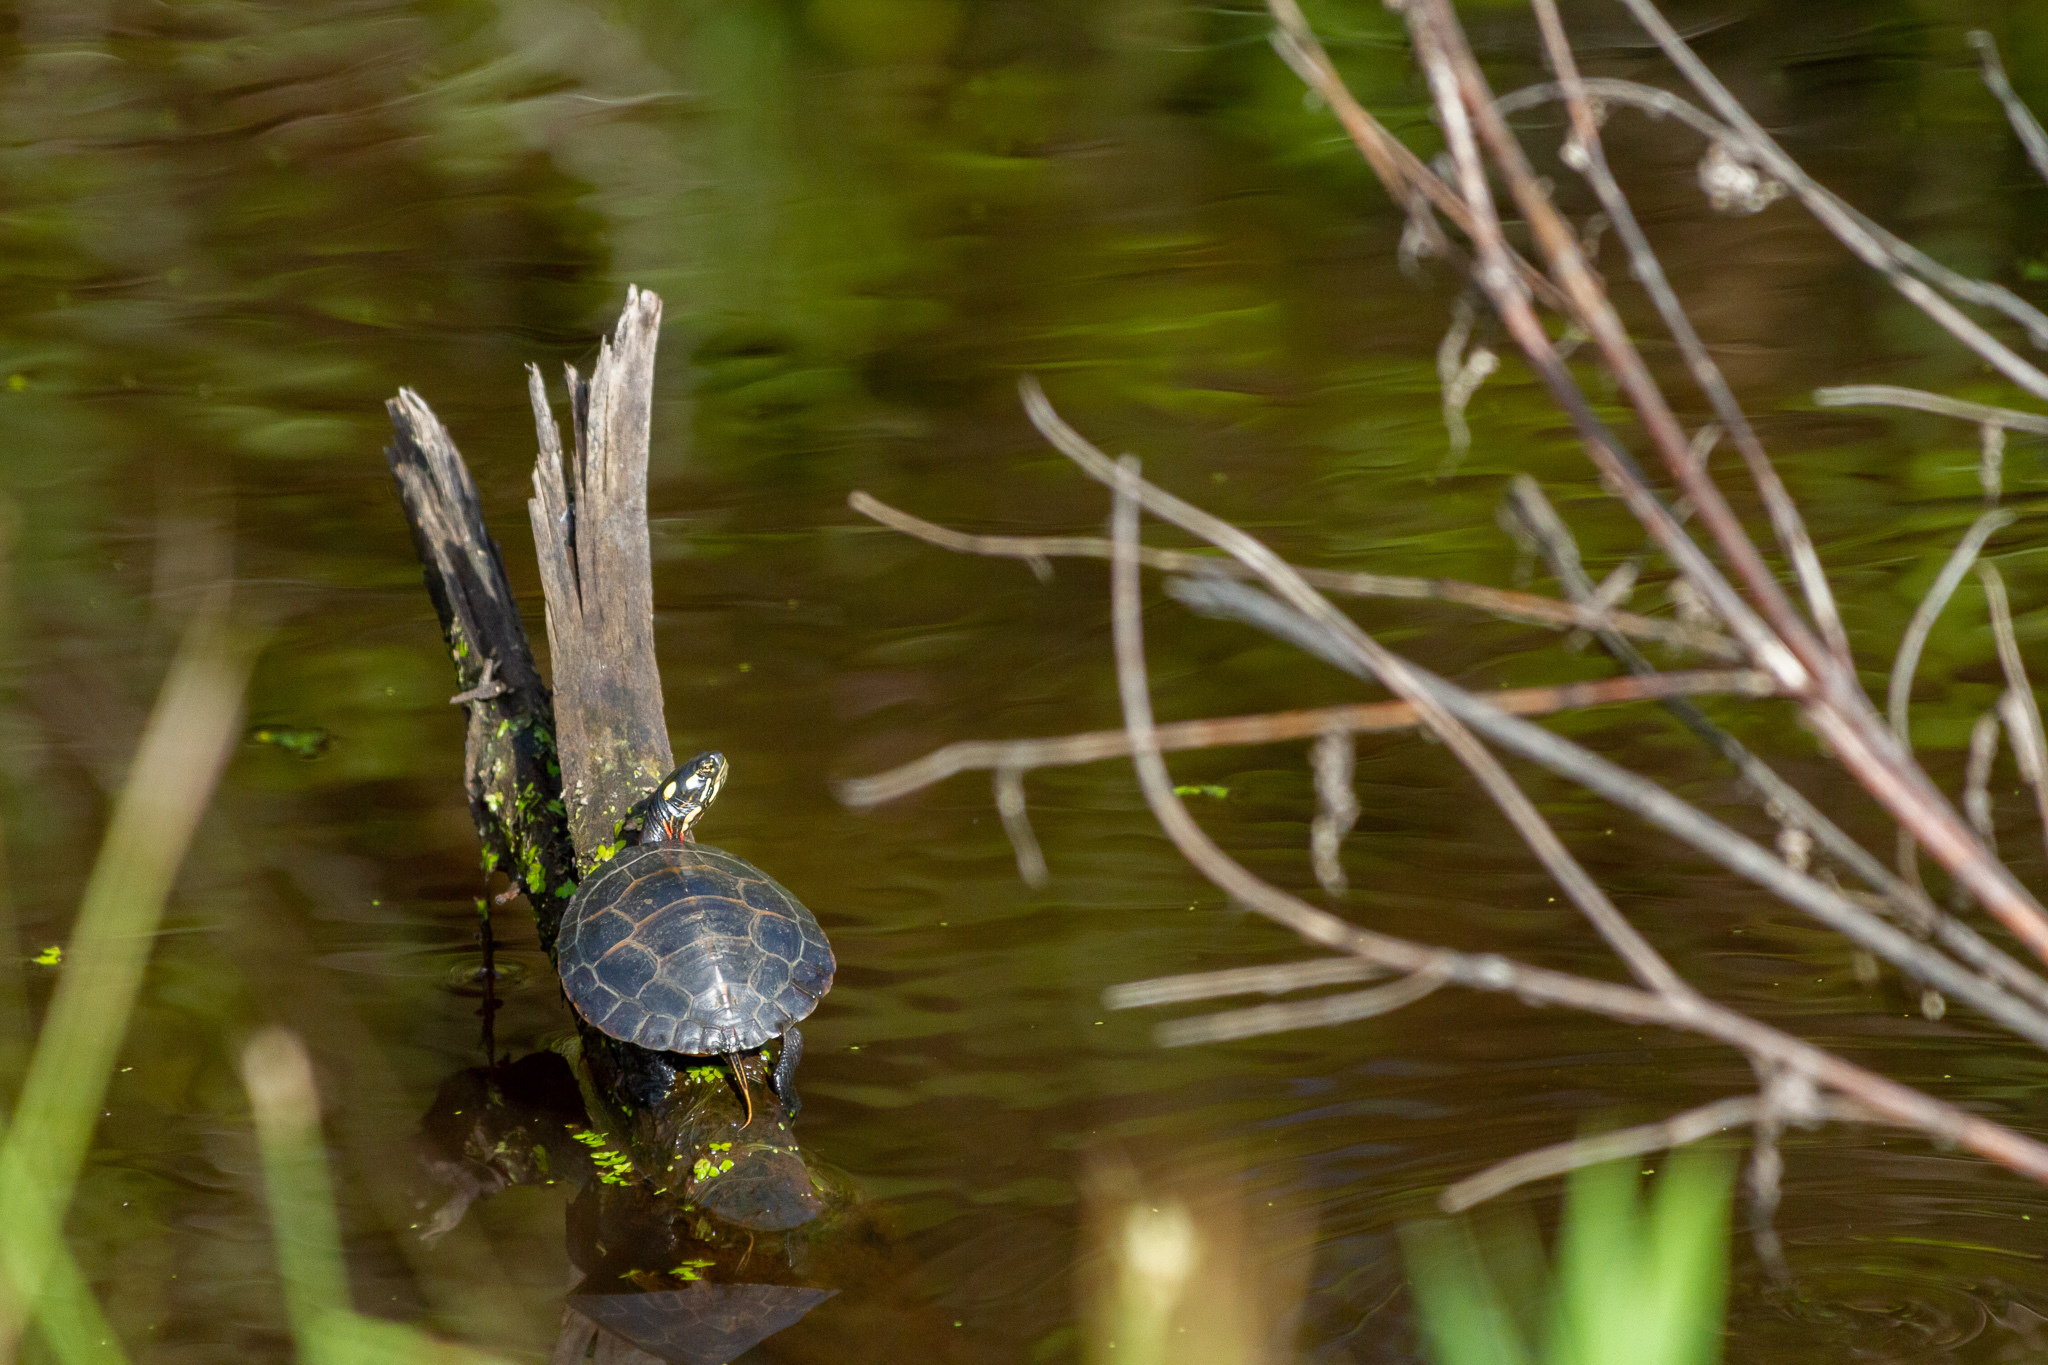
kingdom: Animalia
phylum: Chordata
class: Testudines
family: Emydidae
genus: Chrysemys
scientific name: Chrysemys picta
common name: Painted turtle
